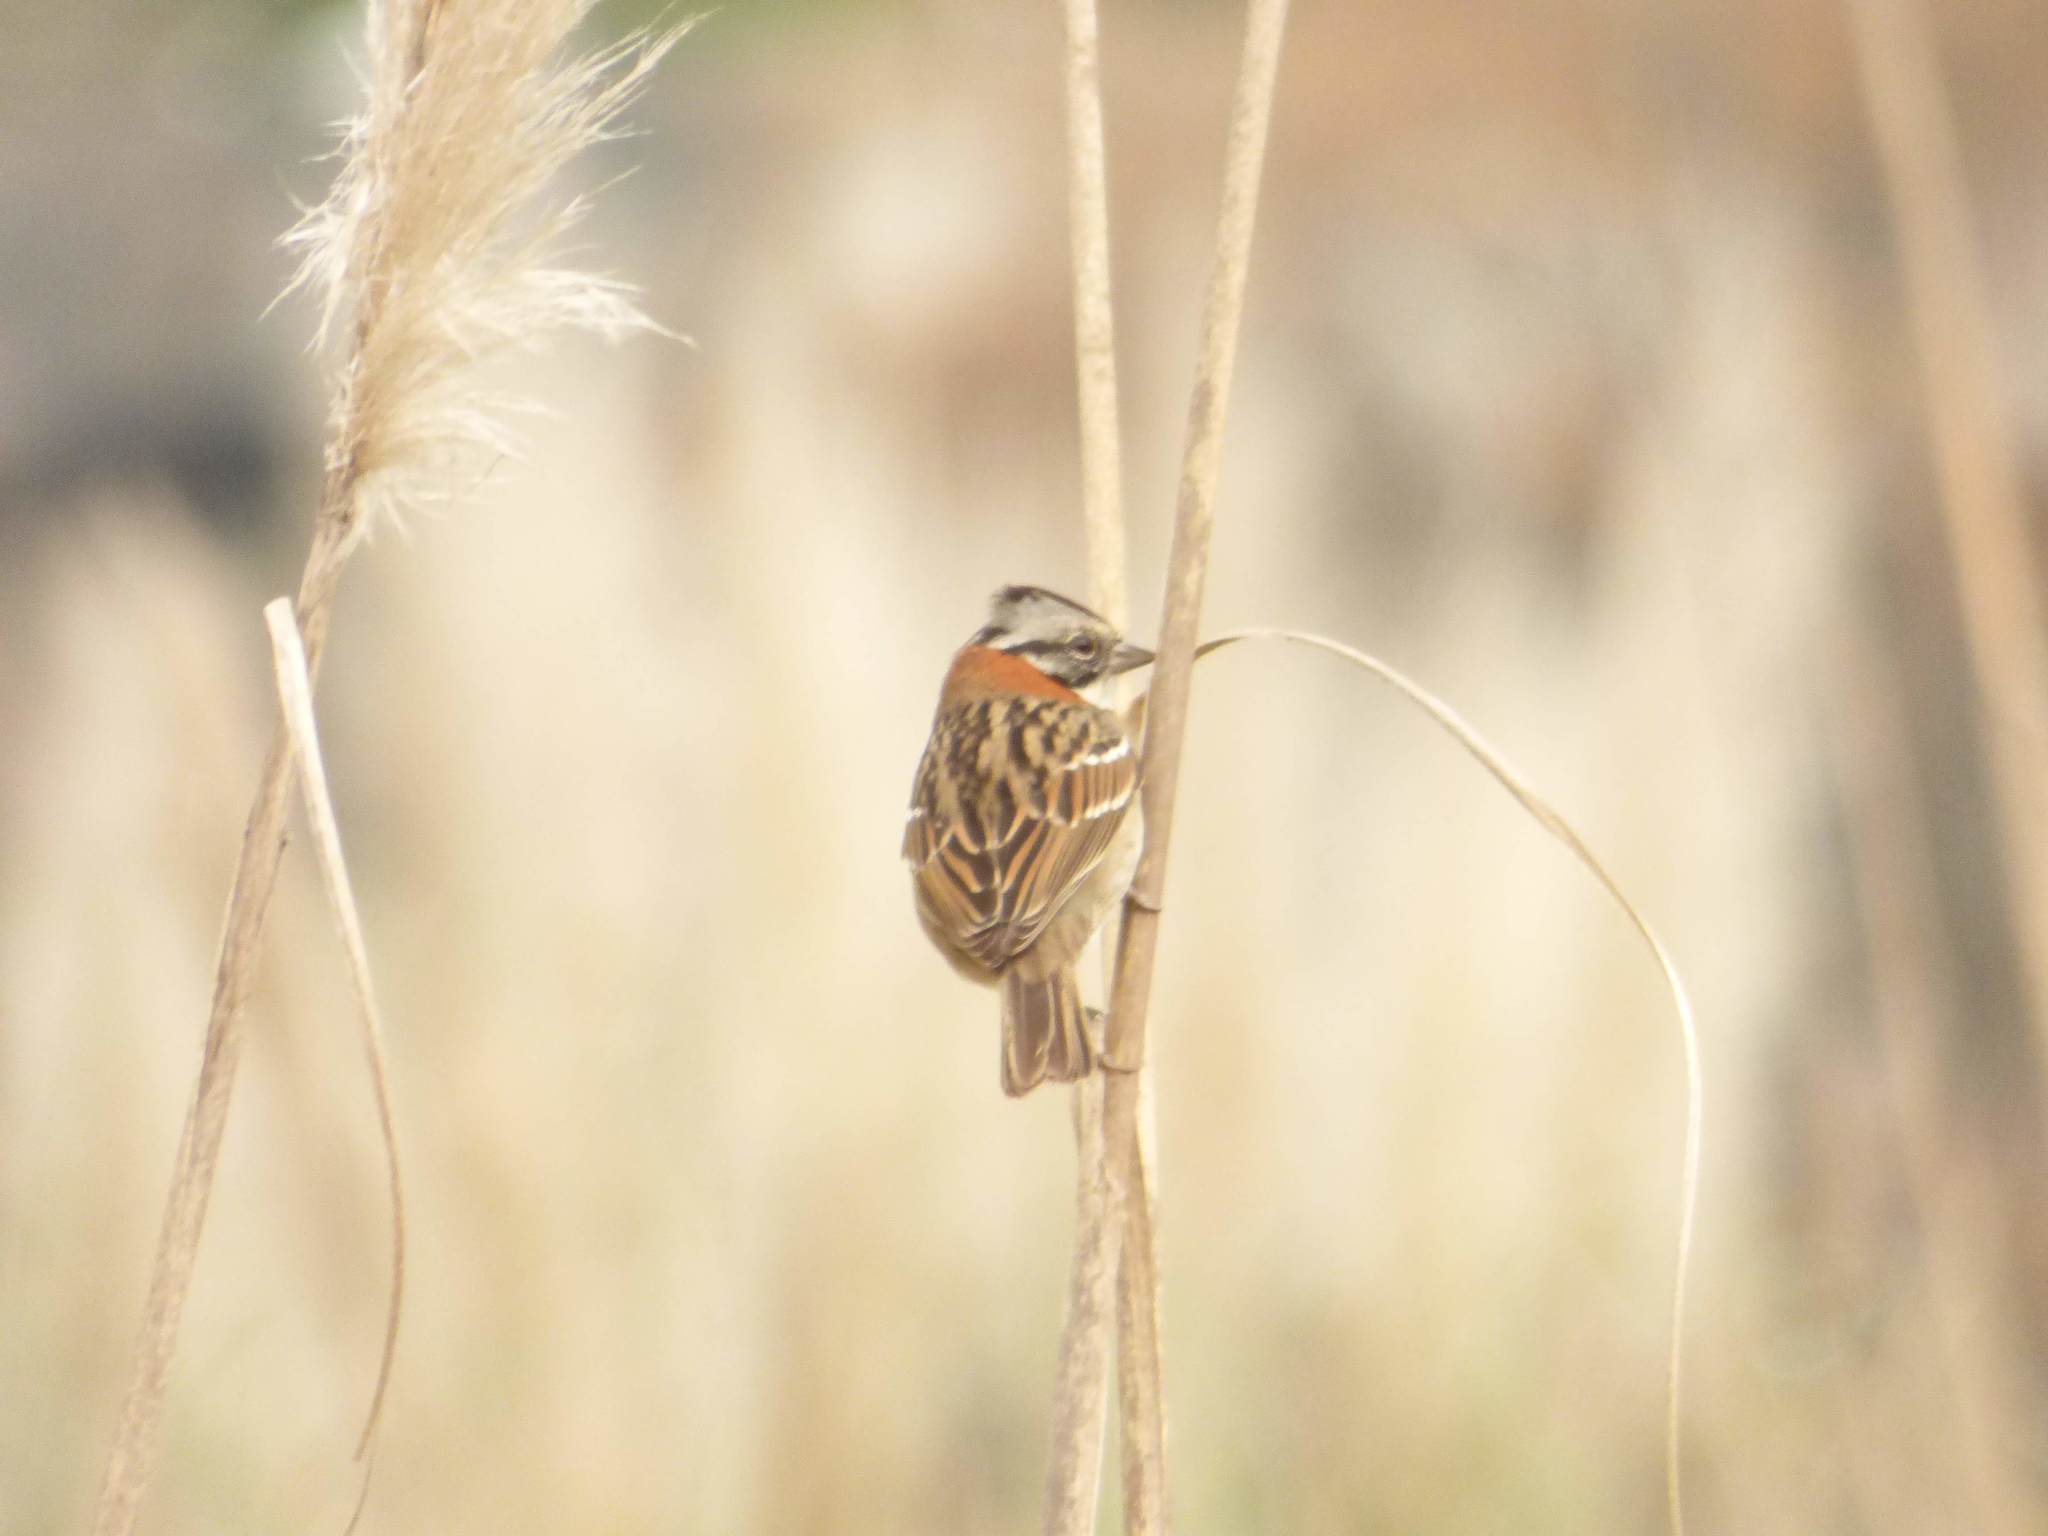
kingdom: Animalia
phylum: Chordata
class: Aves
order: Passeriformes
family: Passerellidae
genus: Zonotrichia
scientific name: Zonotrichia capensis
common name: Rufous-collared sparrow
